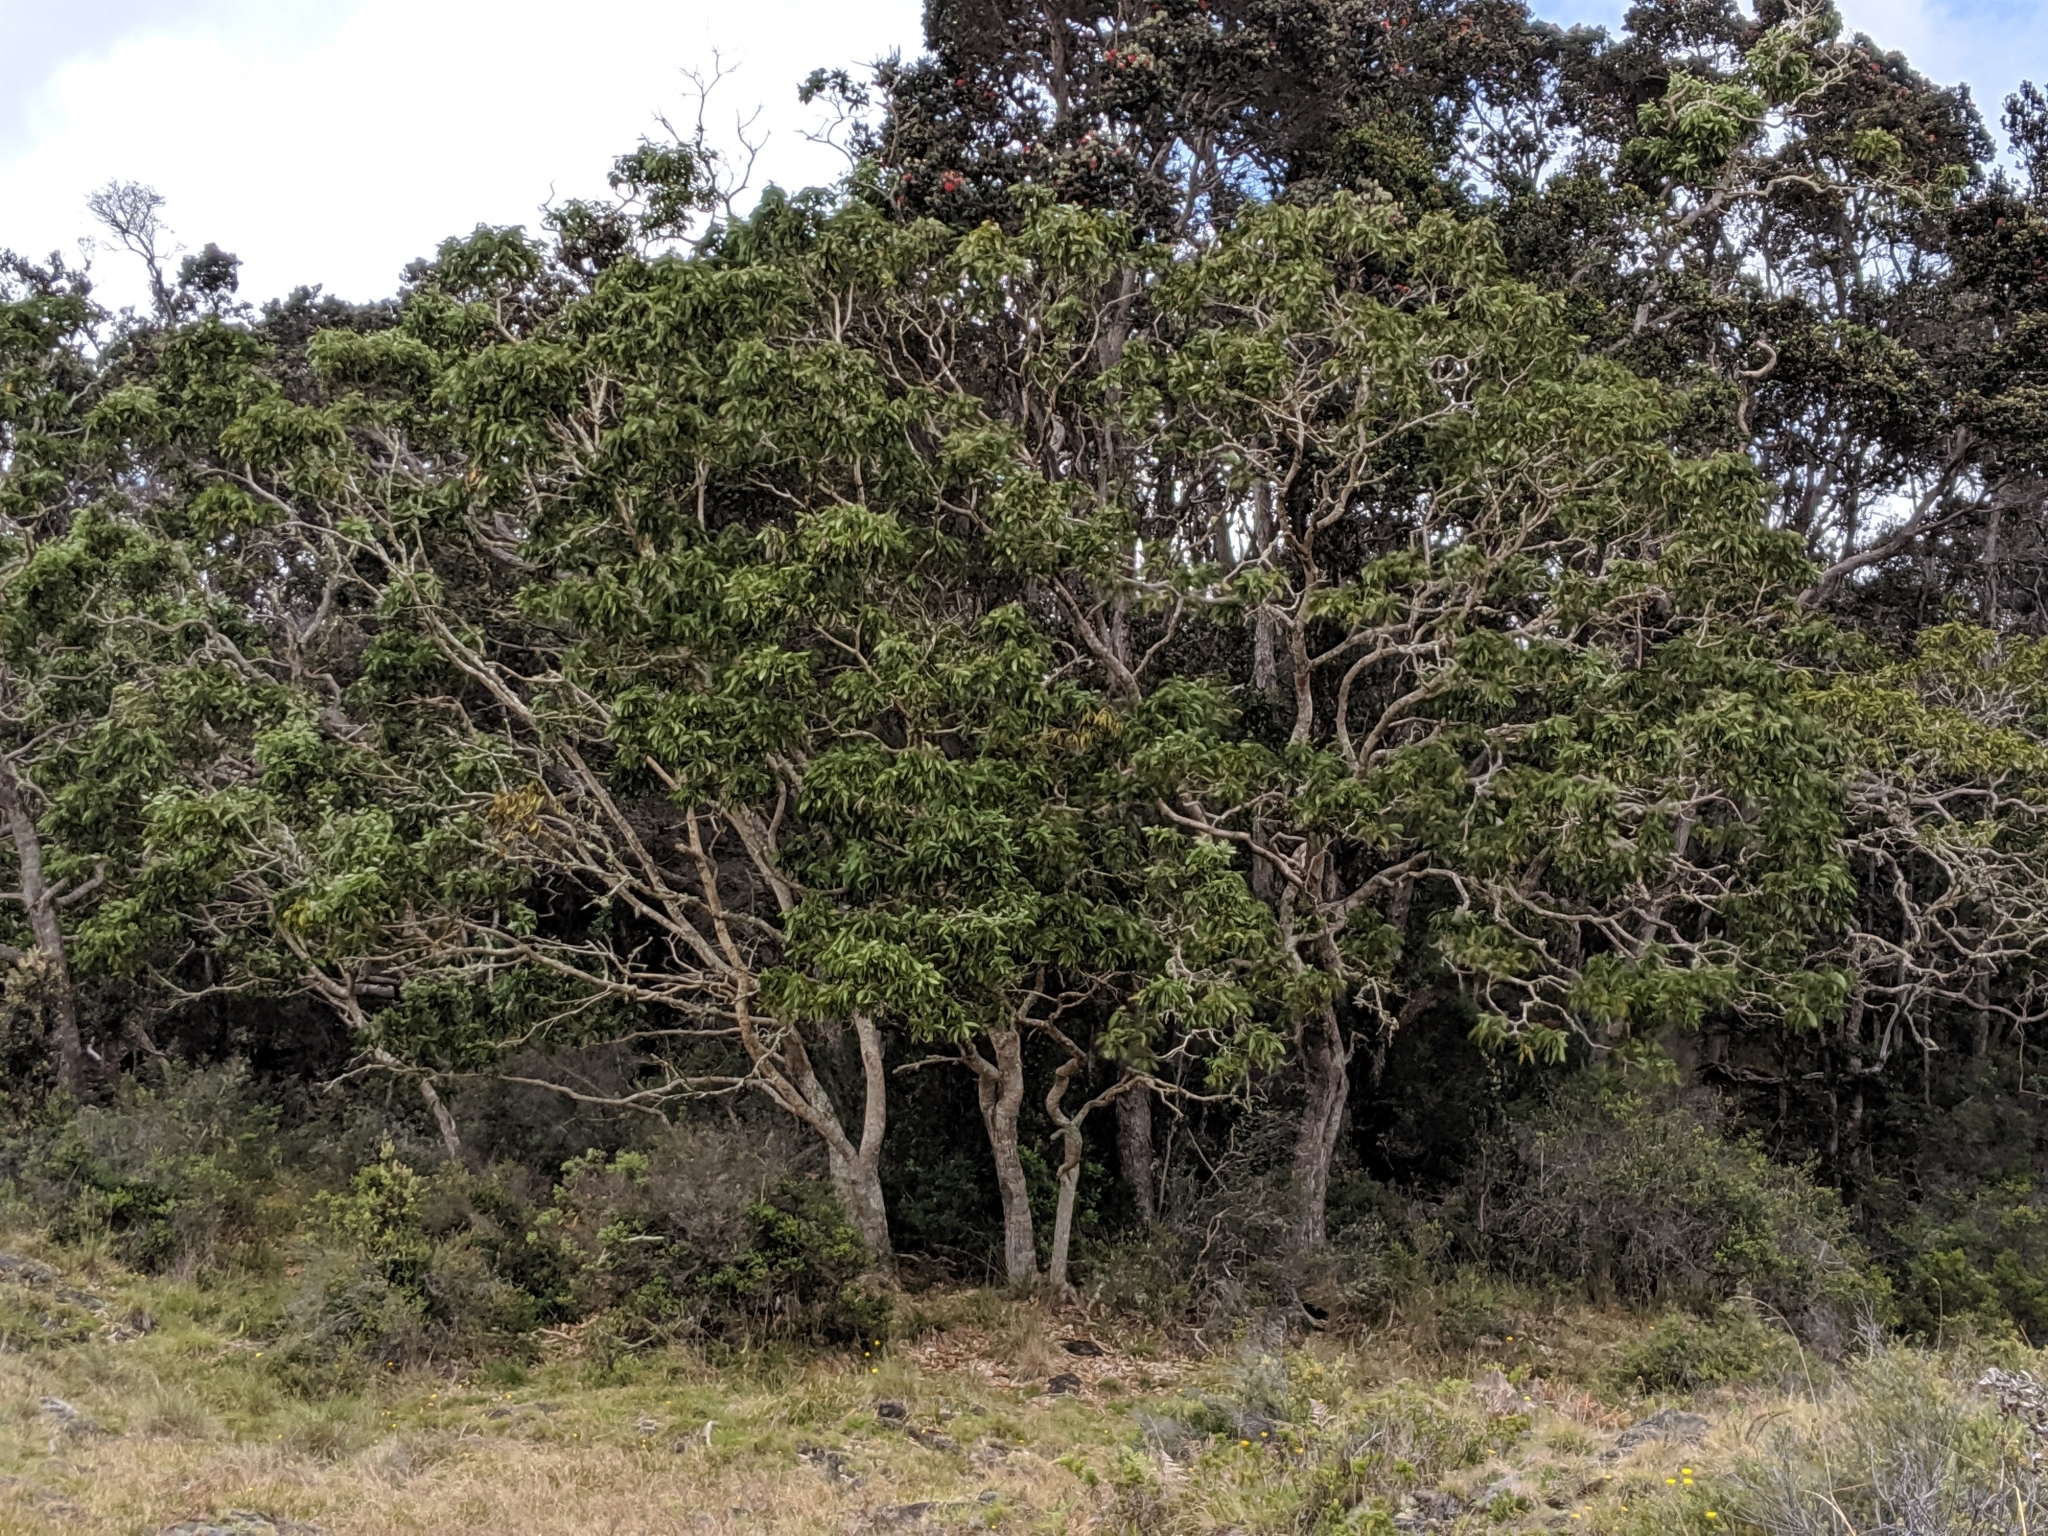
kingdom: Plantae
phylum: Tracheophyta
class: Magnoliopsida
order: Fabales
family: Fabaceae
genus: Acacia
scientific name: Acacia koa
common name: Gray koa
